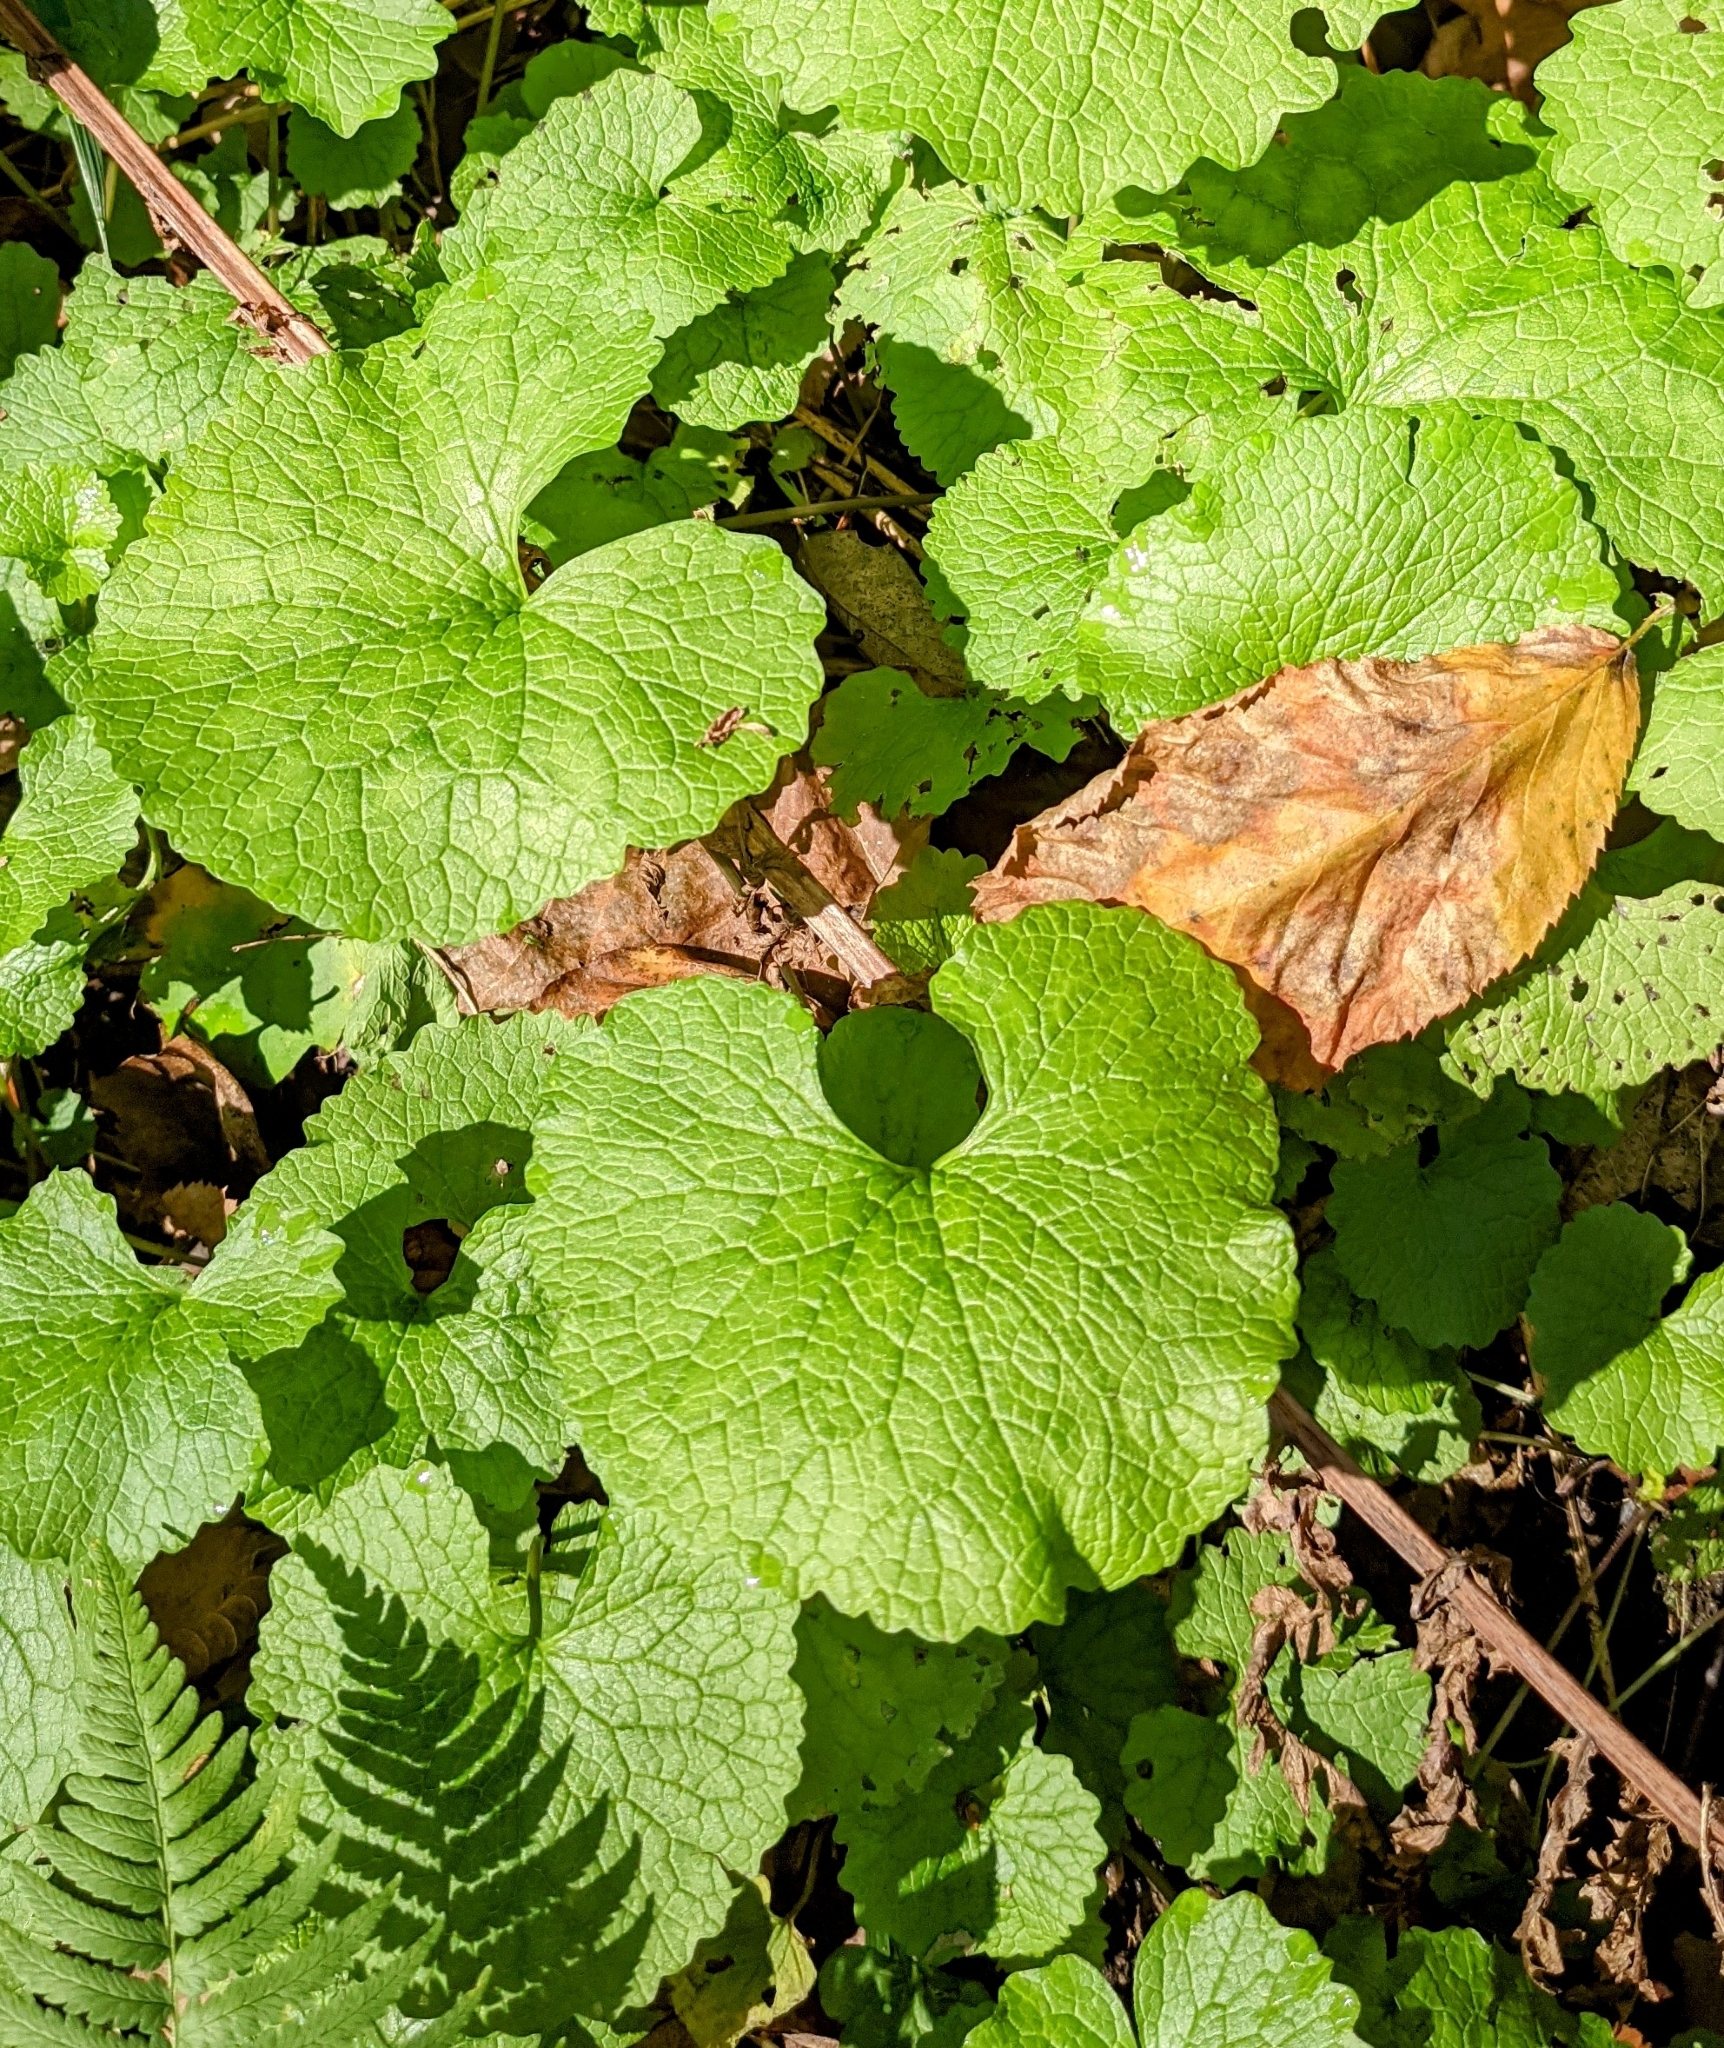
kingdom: Plantae
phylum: Tracheophyta
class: Magnoliopsida
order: Brassicales
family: Brassicaceae
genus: Alliaria
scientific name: Alliaria petiolata
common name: Garlic mustard
